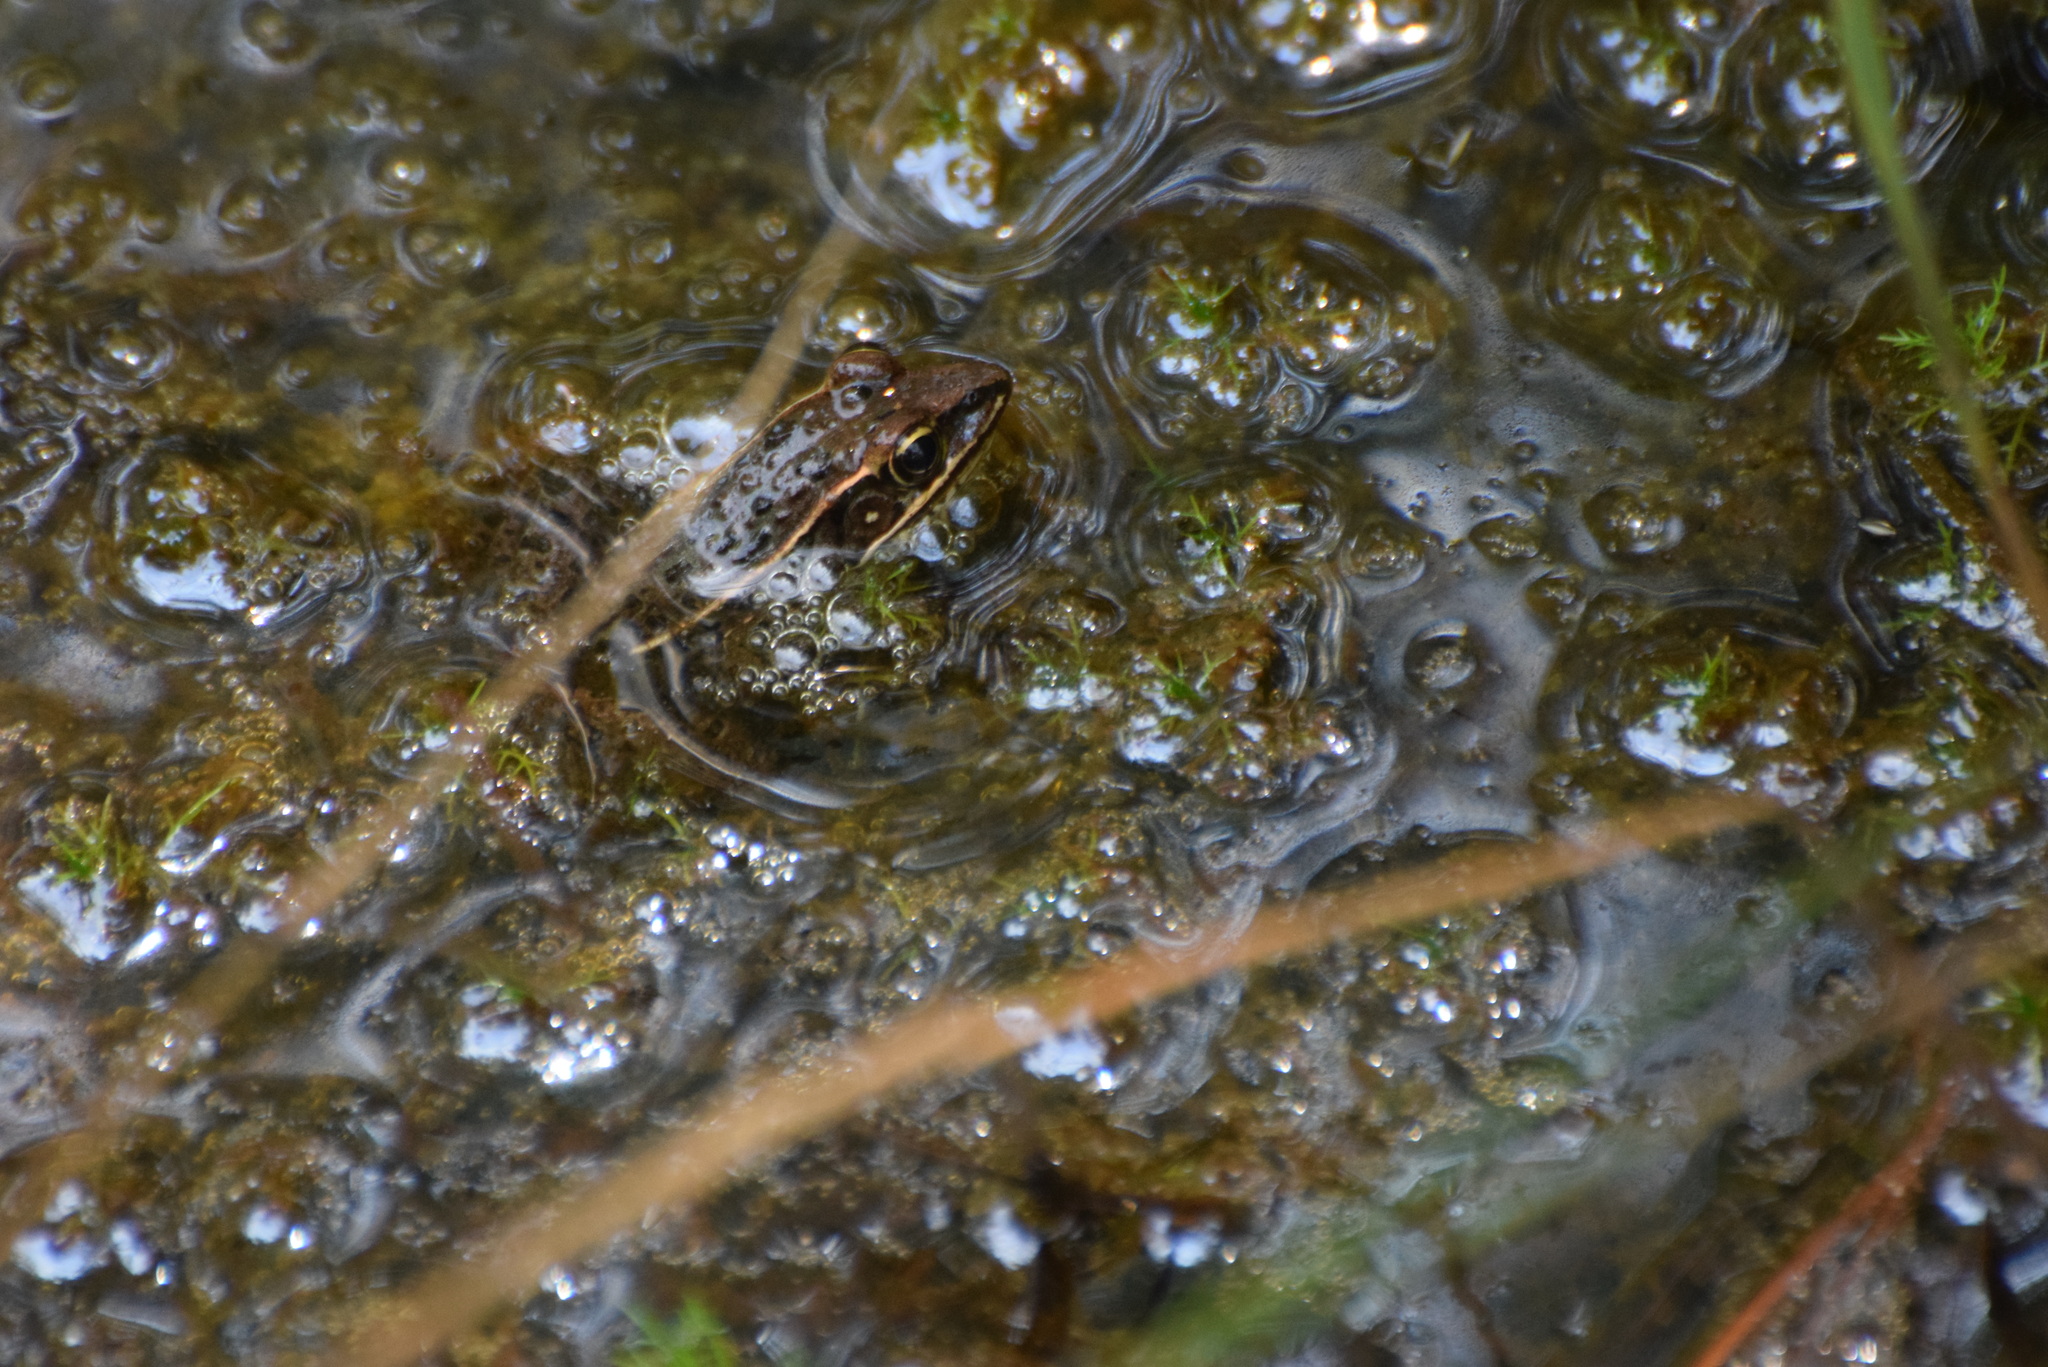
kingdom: Animalia
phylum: Chordata
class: Amphibia
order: Anura
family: Ranidae
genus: Lithobates
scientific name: Lithobates sphenocephalus
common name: Southern leopard frog
